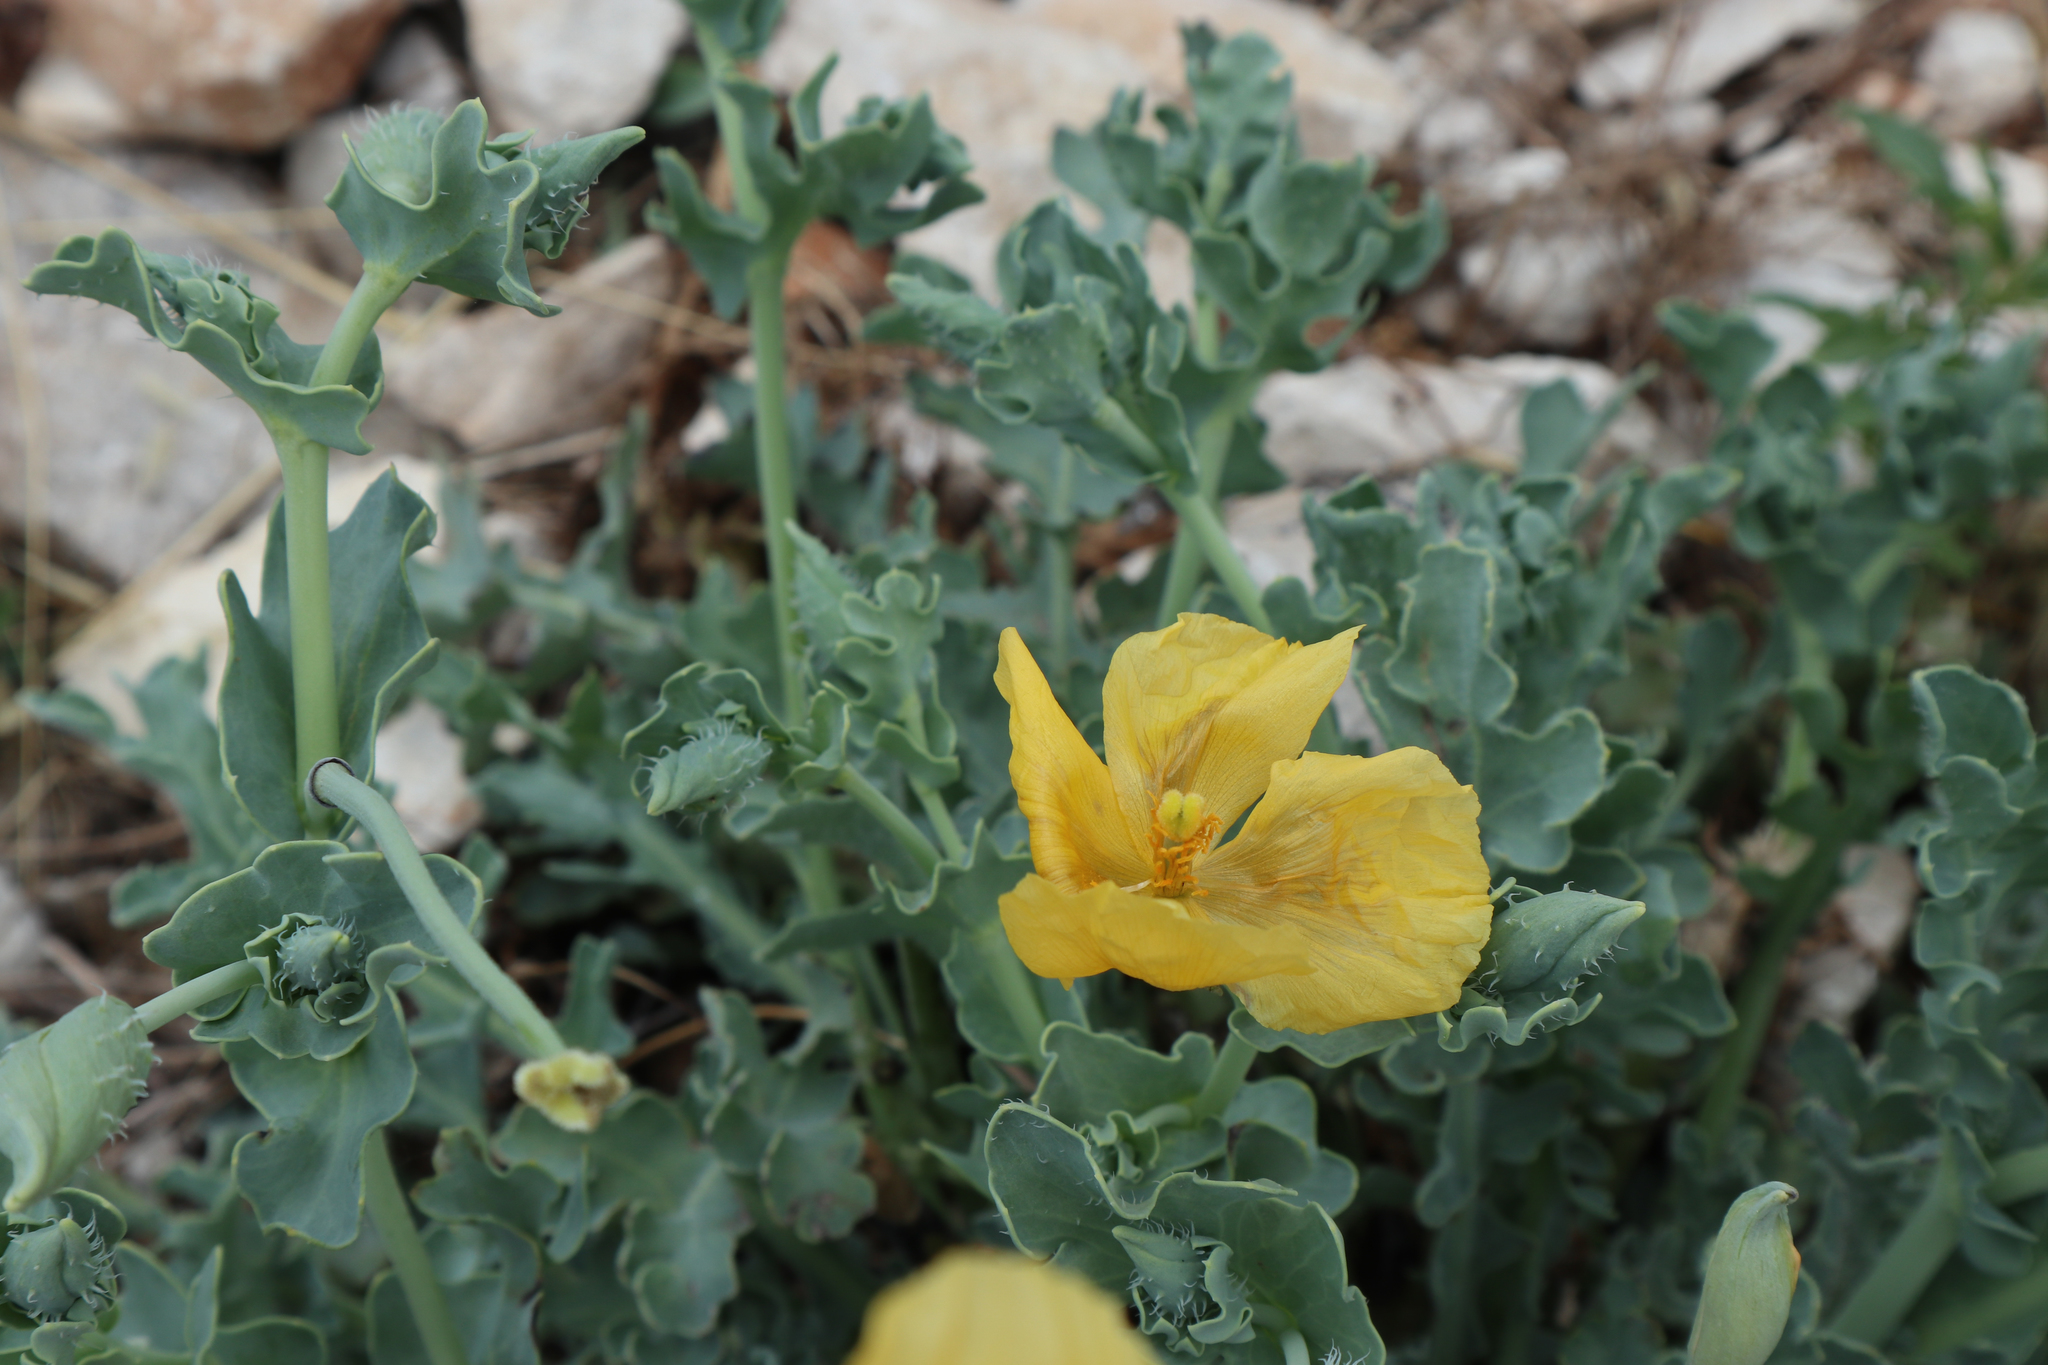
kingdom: Plantae
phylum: Tracheophyta
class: Magnoliopsida
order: Ranunculales
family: Papaveraceae
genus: Glaucium
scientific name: Glaucium flavum
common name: Yellow horned-poppy
